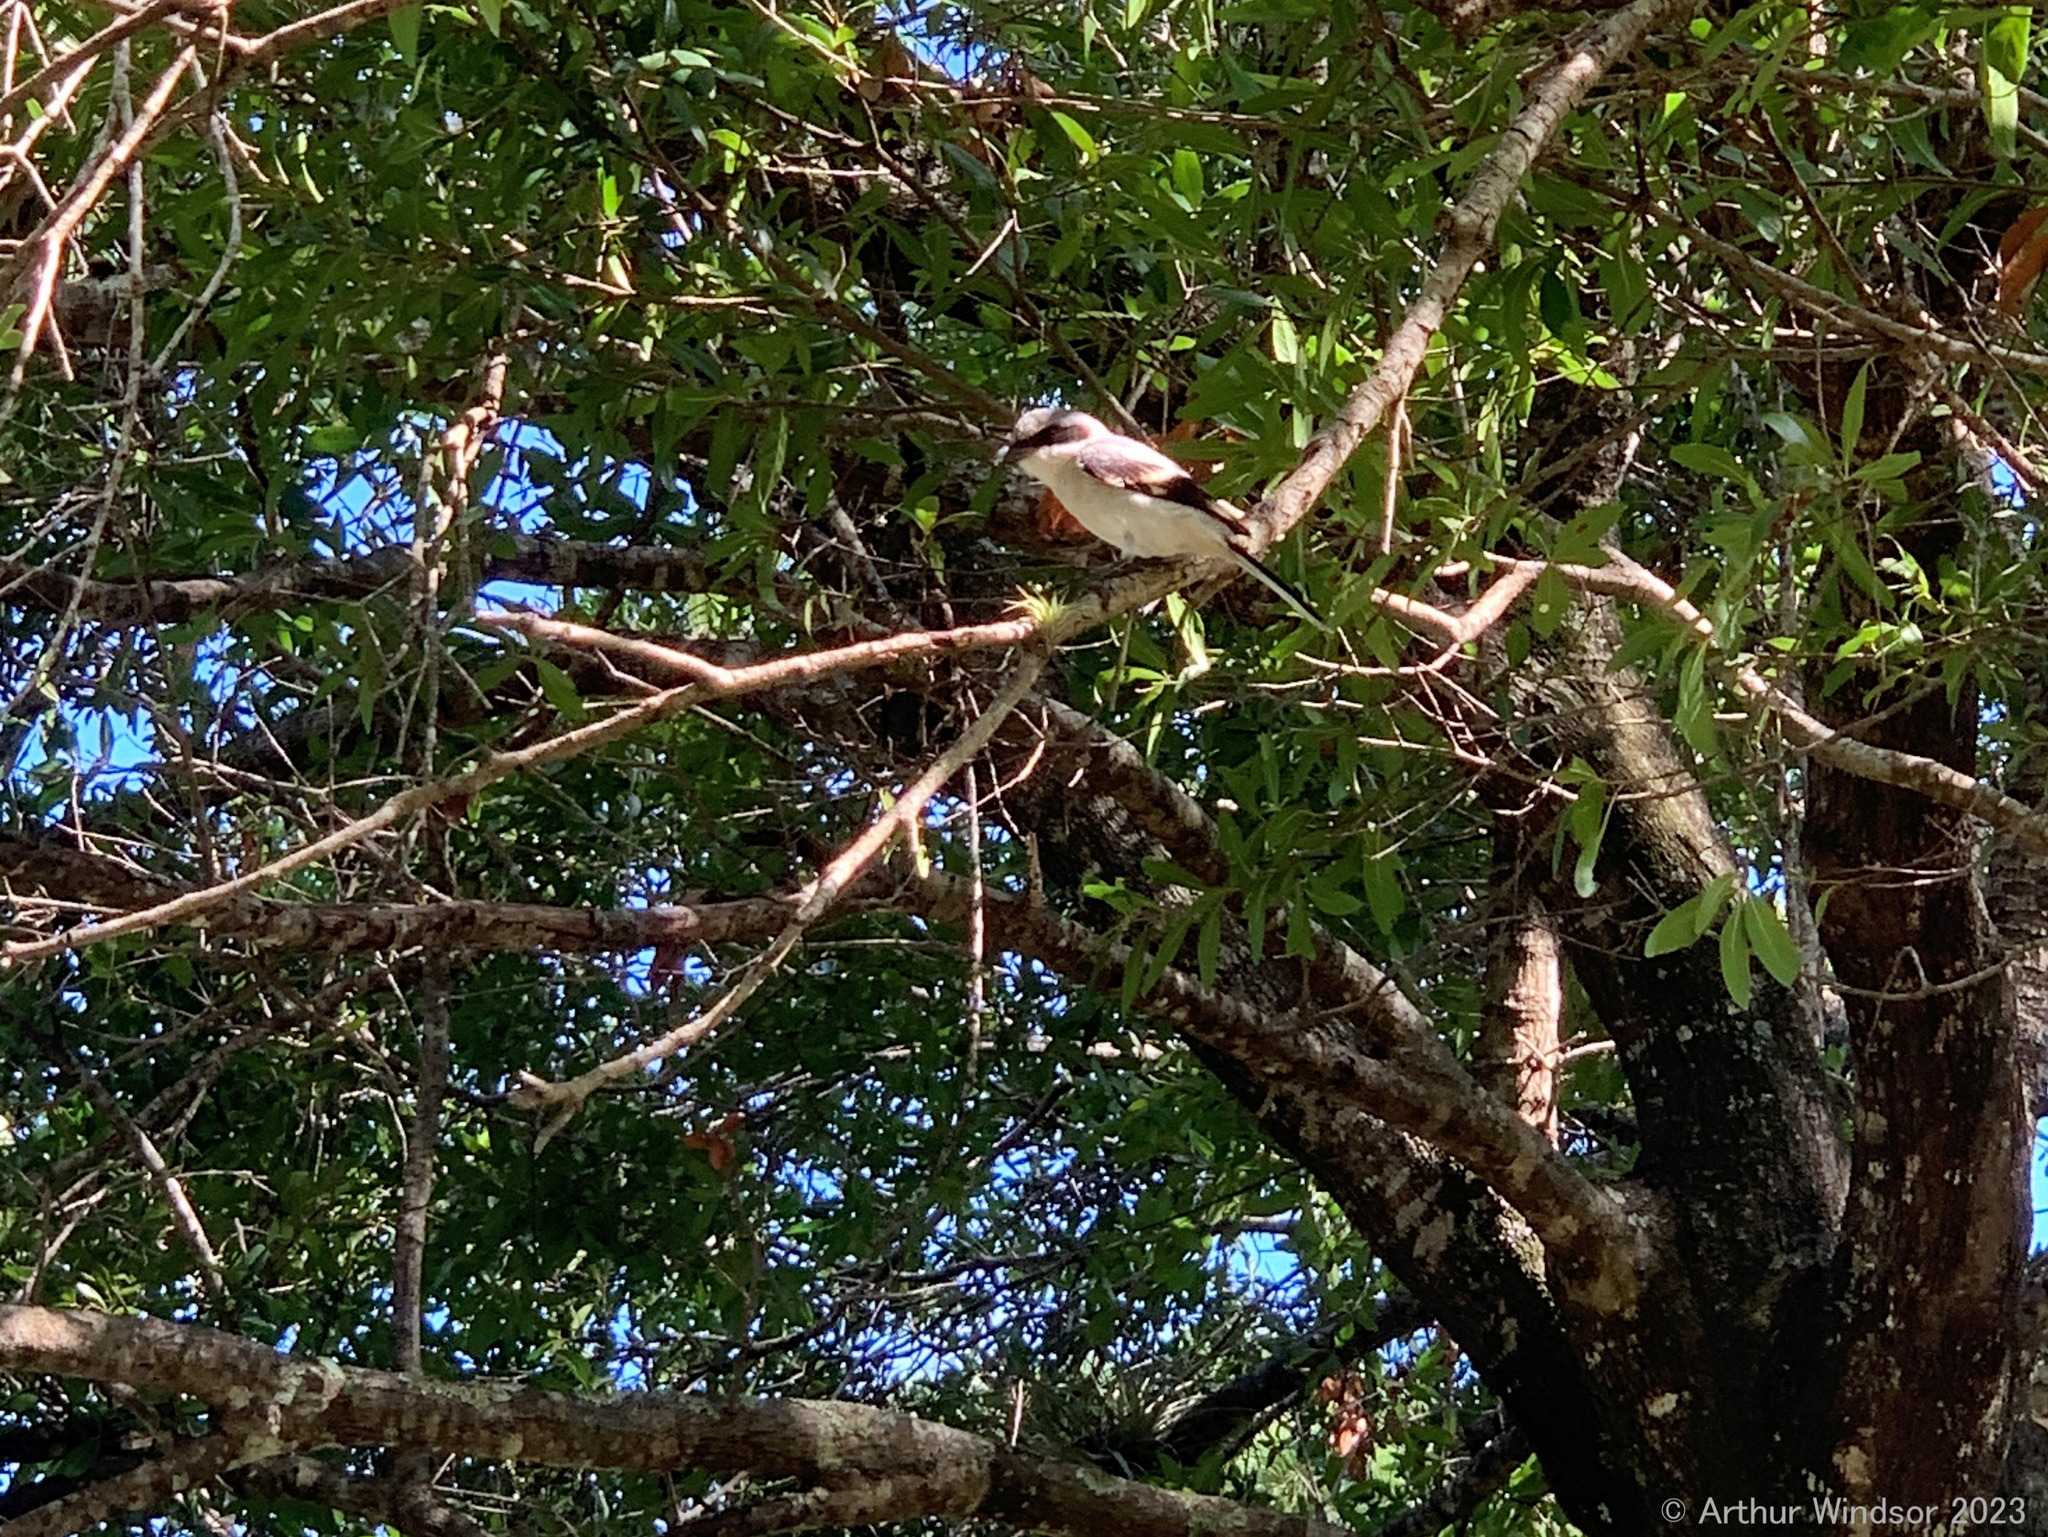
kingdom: Animalia
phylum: Chordata
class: Aves
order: Passeriformes
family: Laniidae
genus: Lanius
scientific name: Lanius ludovicianus
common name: Loggerhead shrike
